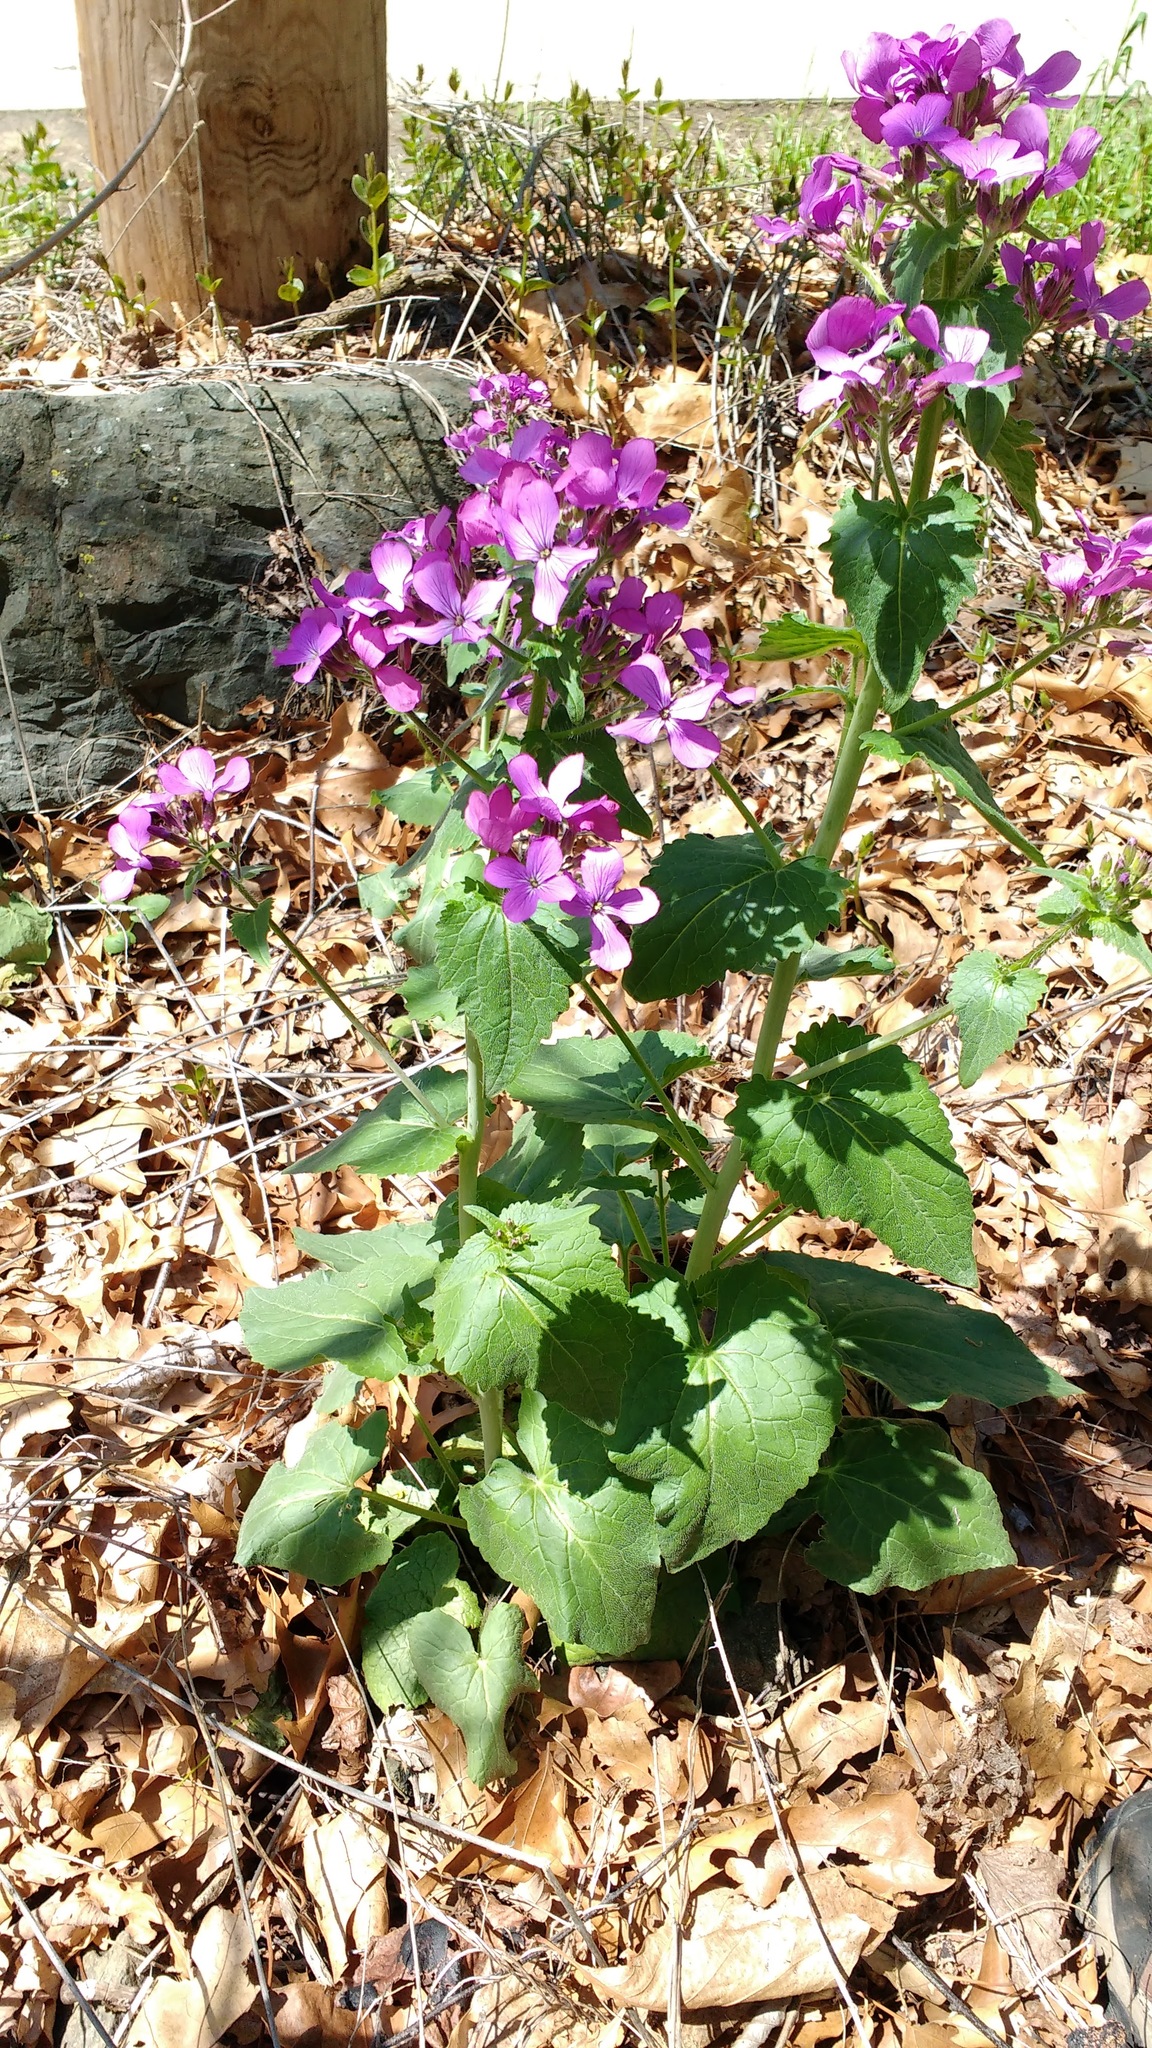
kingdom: Plantae
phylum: Tracheophyta
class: Magnoliopsida
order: Brassicales
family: Brassicaceae
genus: Lunaria
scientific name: Lunaria annua
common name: Honesty
